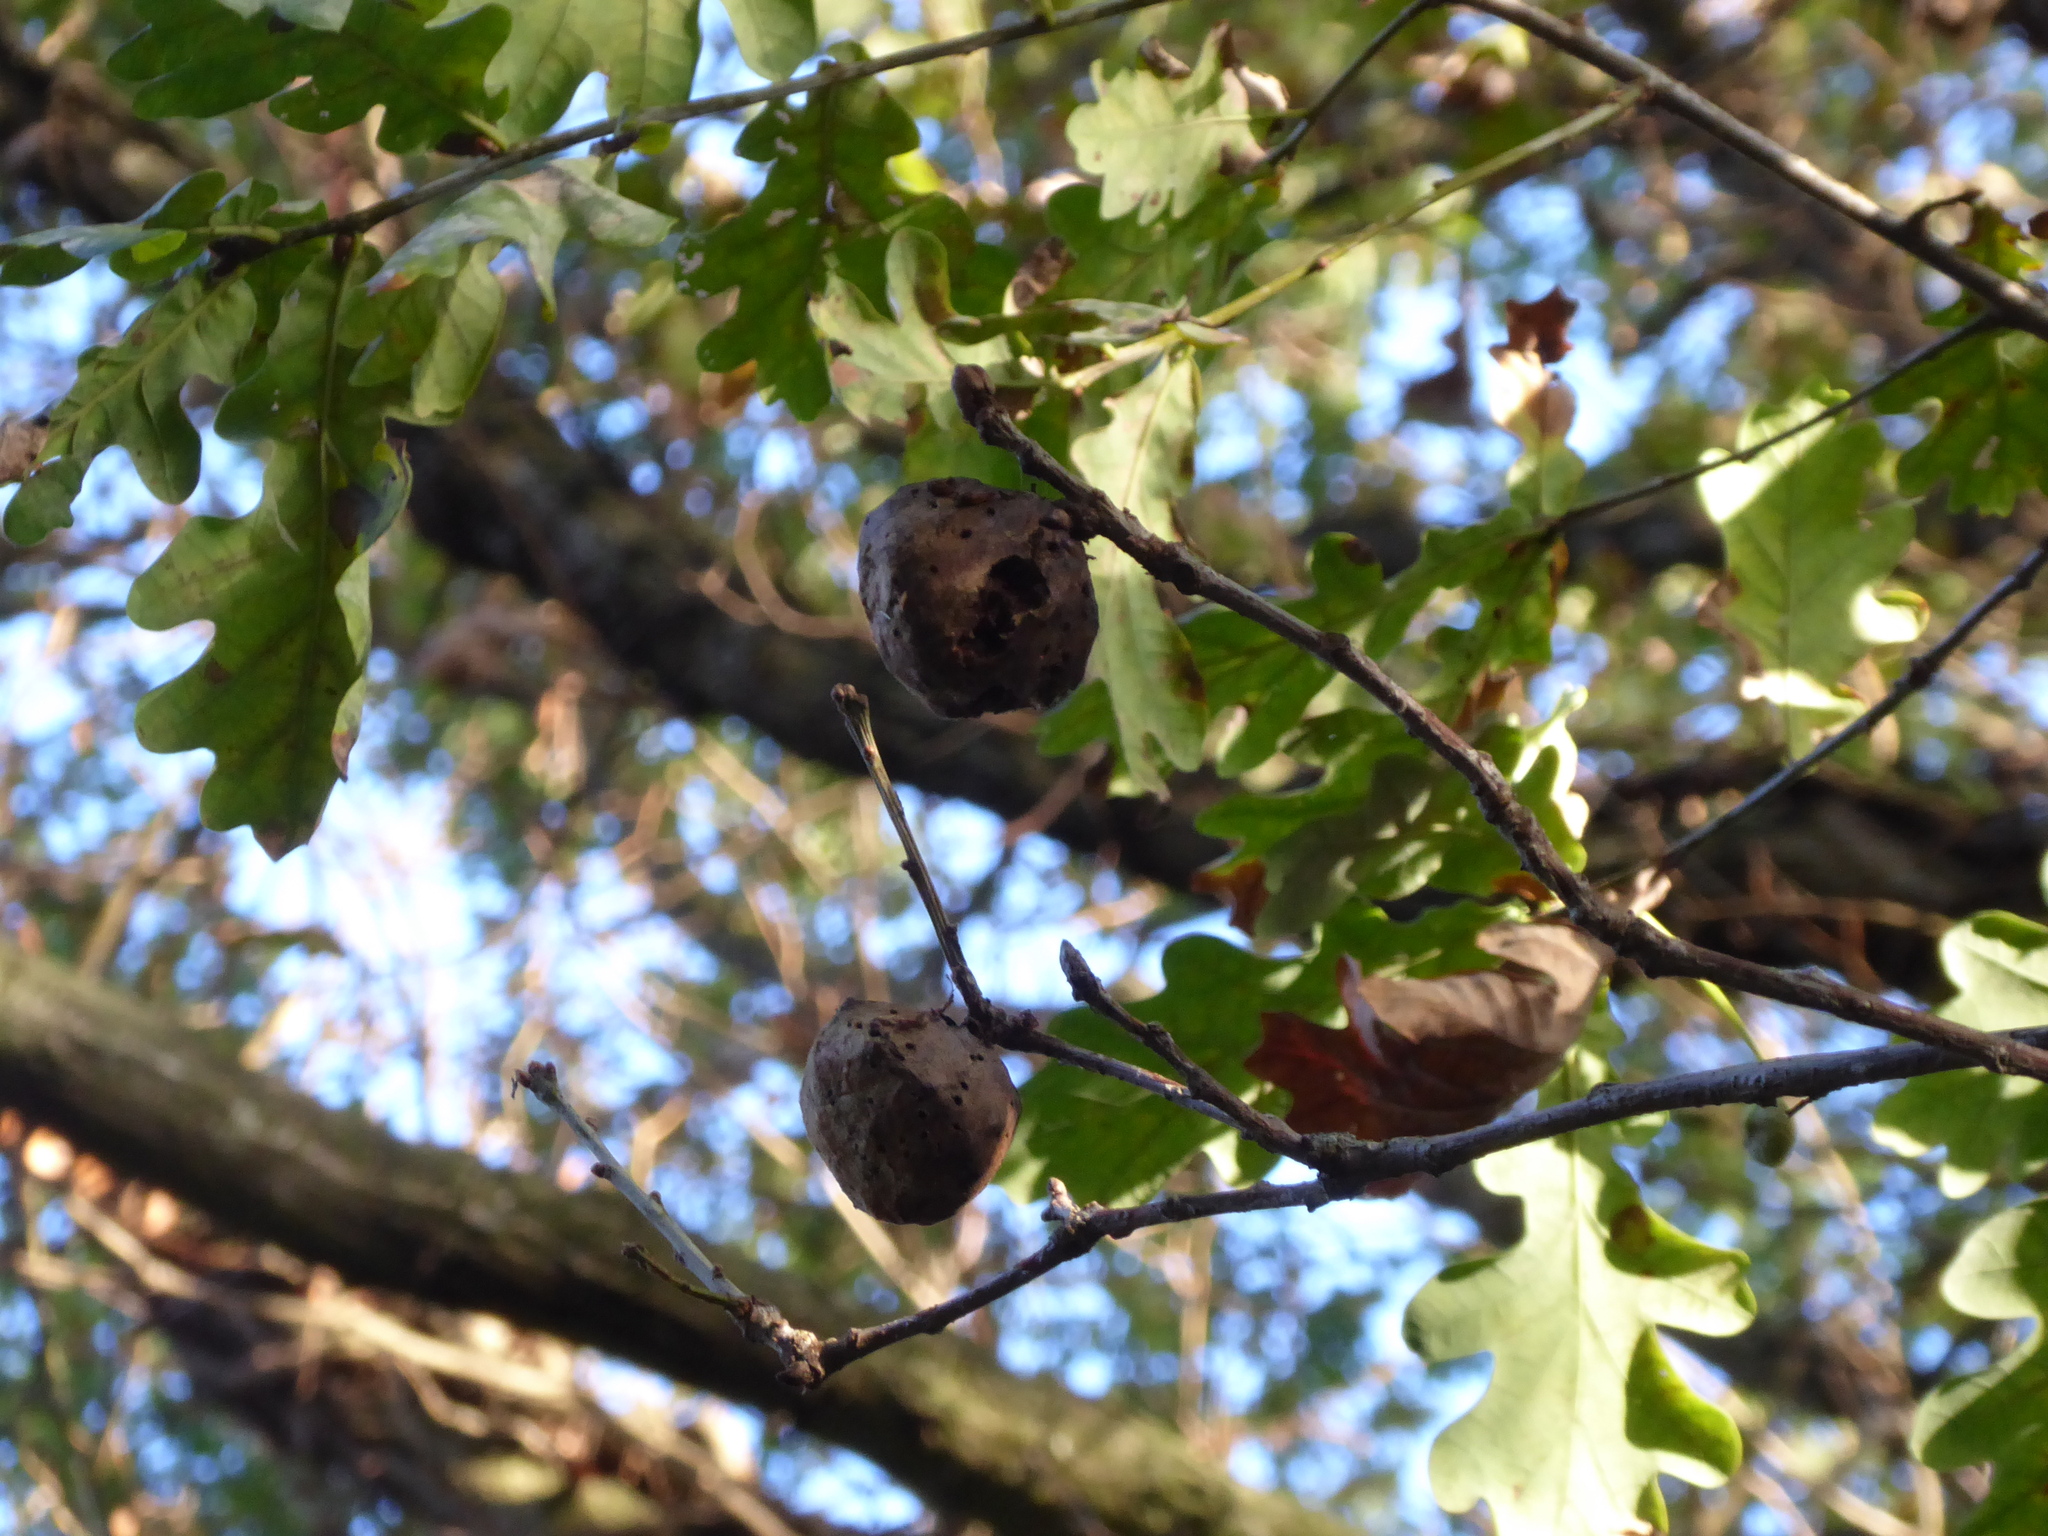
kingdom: Animalia
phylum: Arthropoda
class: Insecta
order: Hymenoptera
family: Cynipidae
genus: Biorhiza
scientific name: Biorhiza pallida
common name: Oak apple
